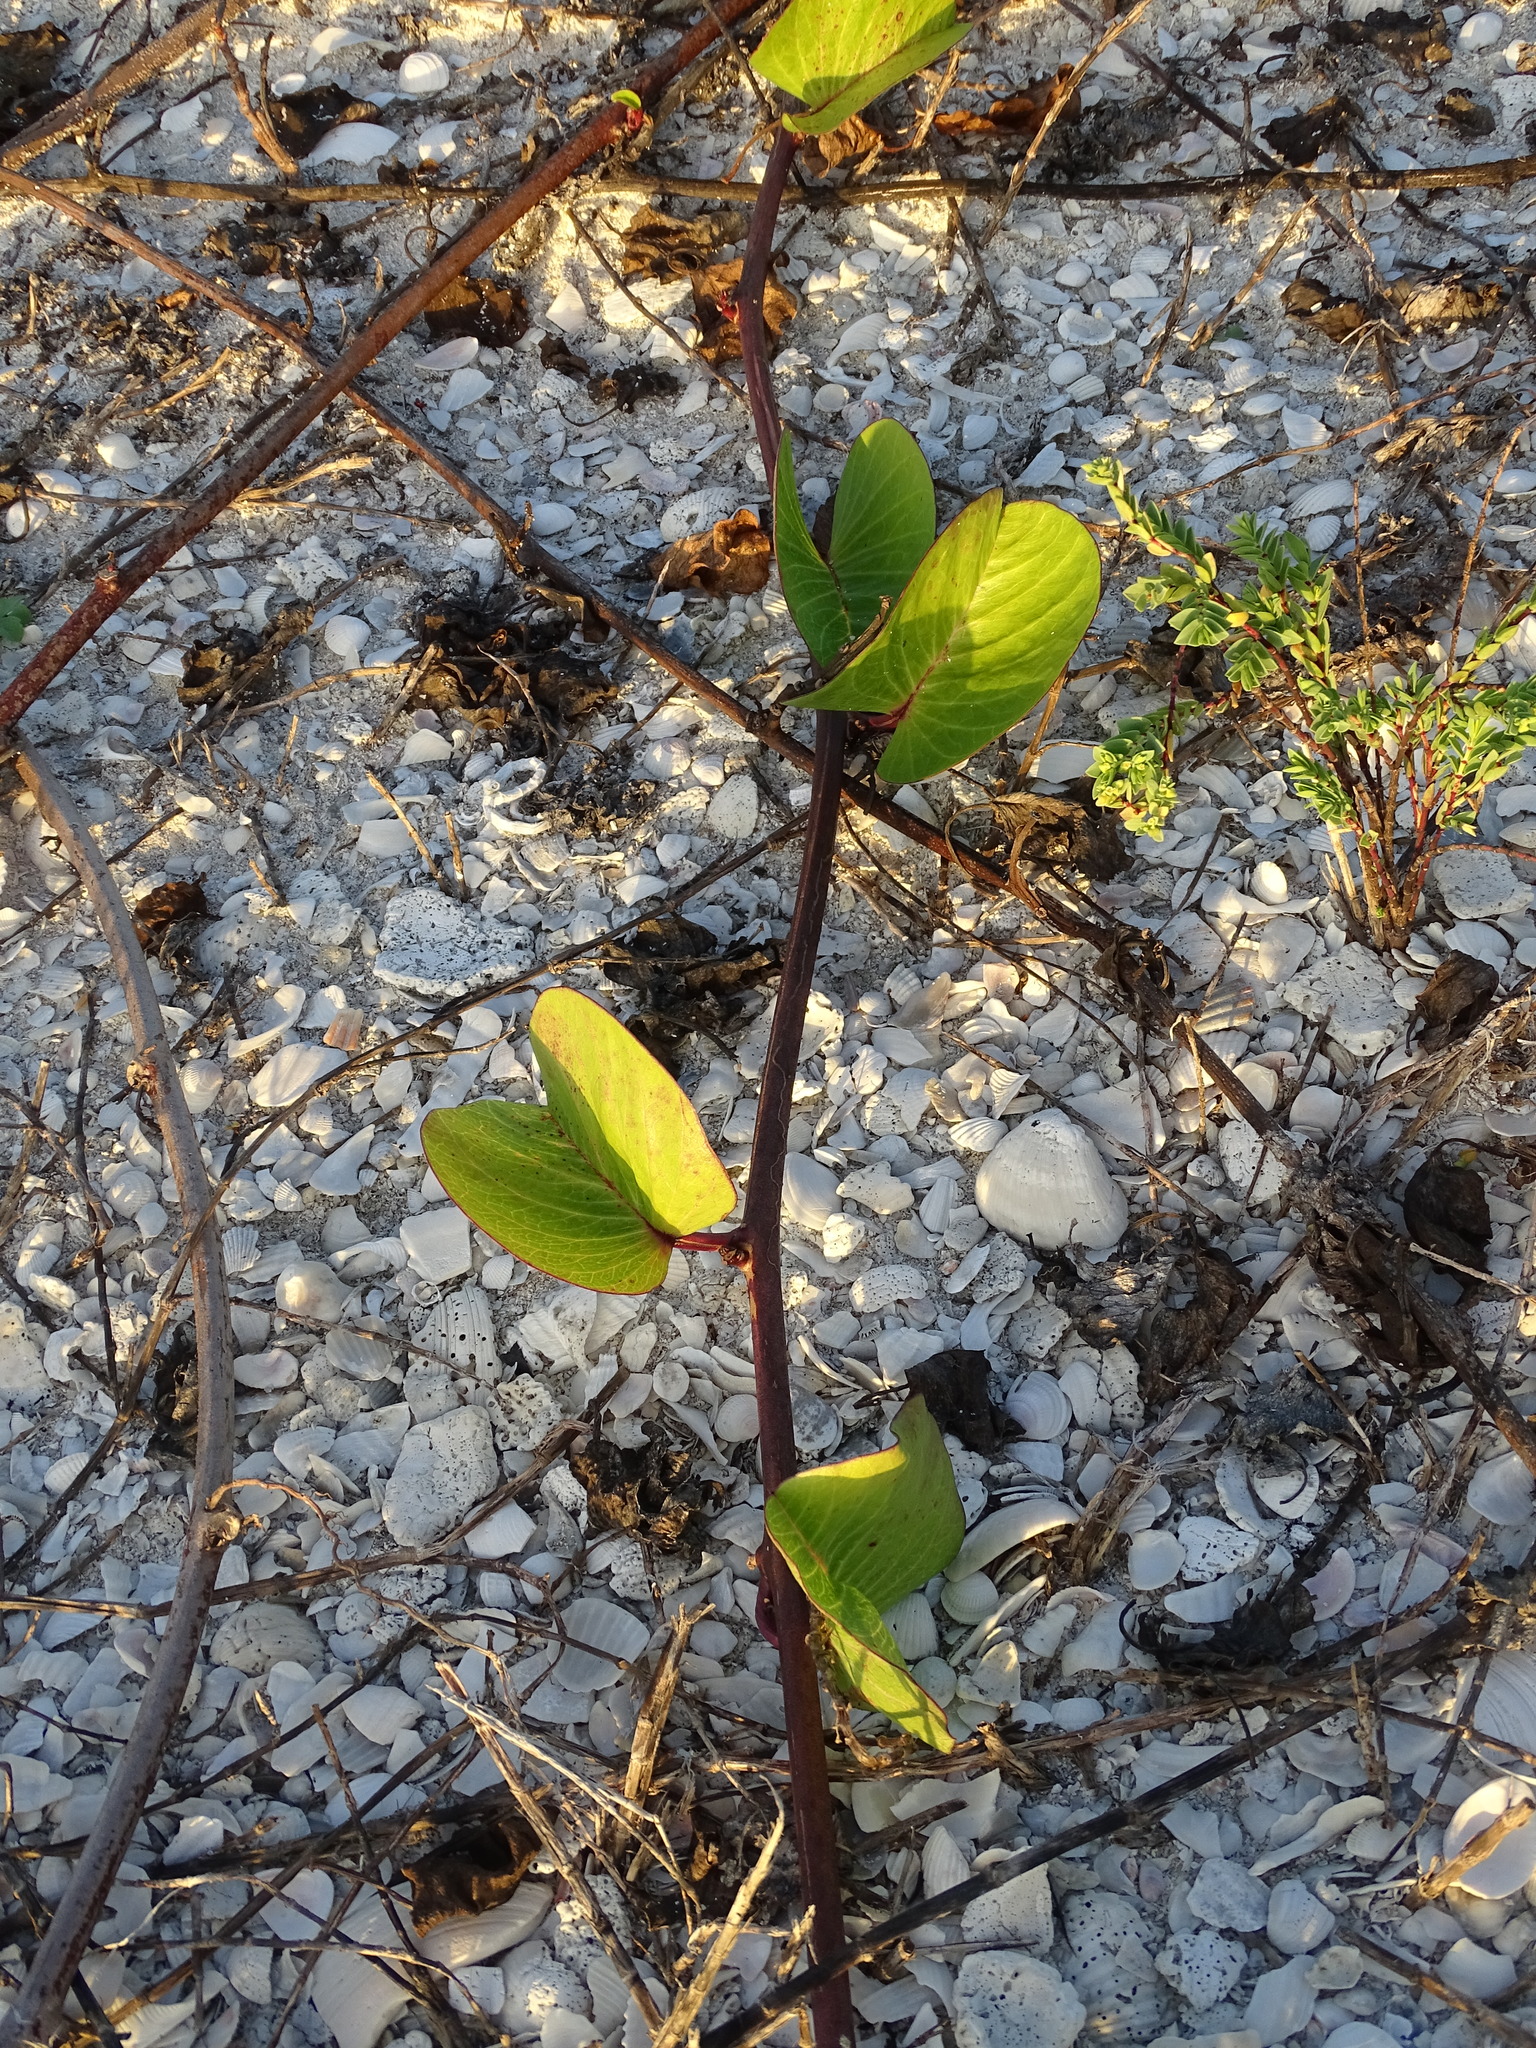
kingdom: Plantae
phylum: Tracheophyta
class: Magnoliopsida
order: Solanales
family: Convolvulaceae
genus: Ipomoea
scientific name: Ipomoea pes-caprae
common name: Beach morning glory
